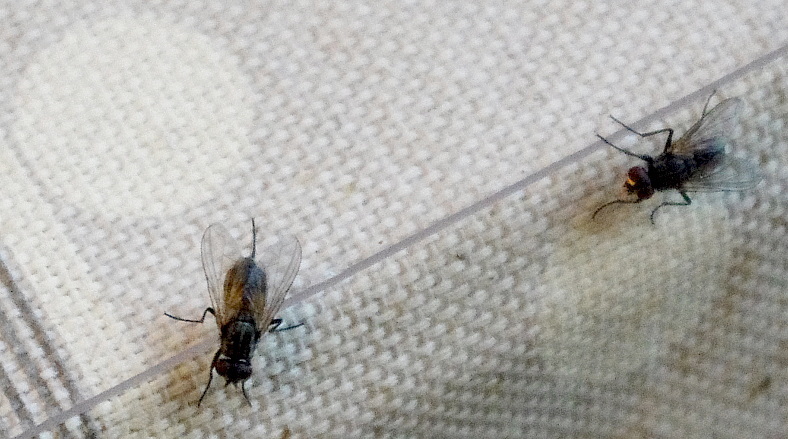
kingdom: Animalia
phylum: Arthropoda
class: Insecta
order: Diptera
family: Muscidae
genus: Musca
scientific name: Musca domestica
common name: House fly
